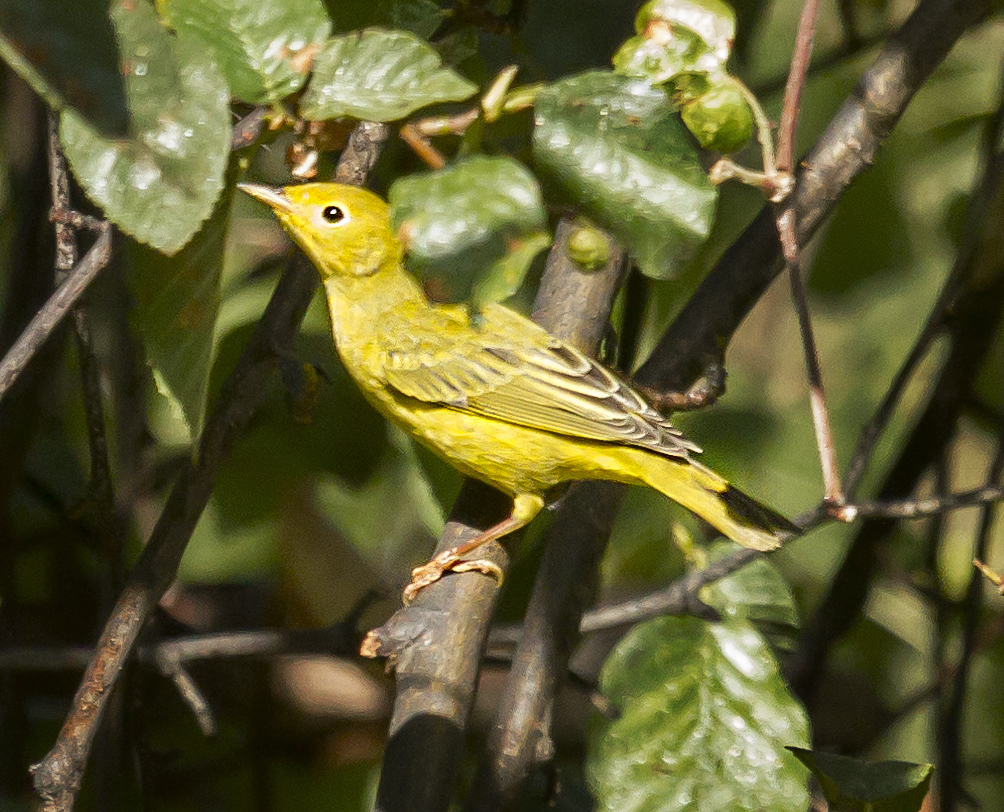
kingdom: Animalia
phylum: Chordata
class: Aves
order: Passeriformes
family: Parulidae
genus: Setophaga
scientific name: Setophaga petechia
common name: Yellow warbler
